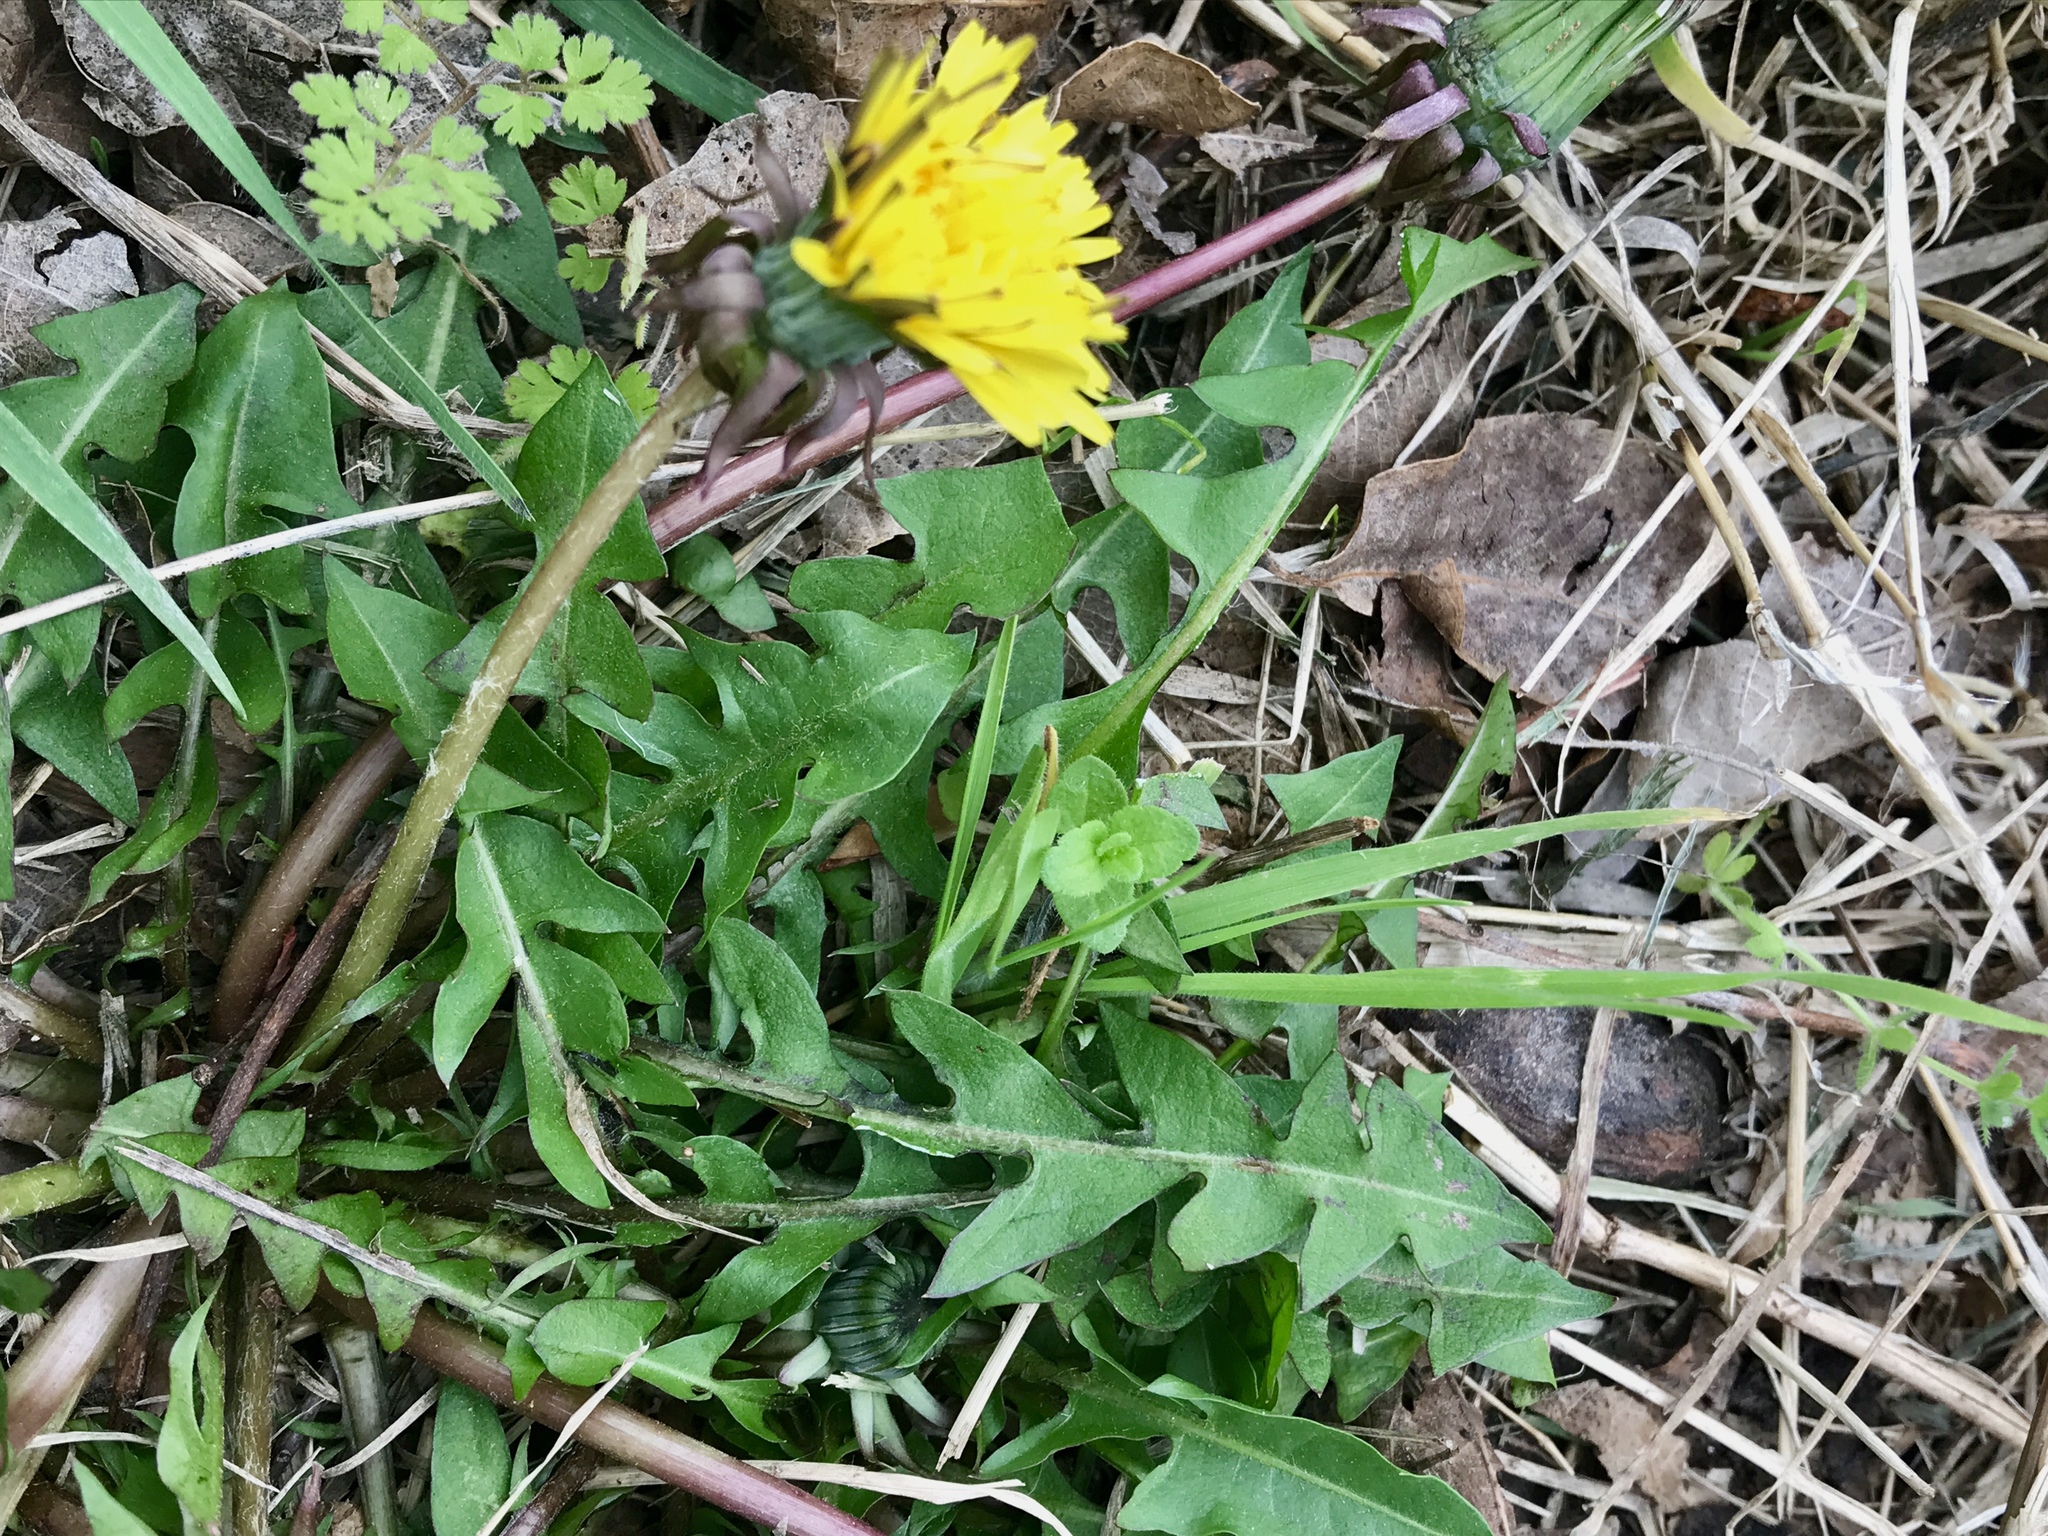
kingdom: Plantae
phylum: Tracheophyta
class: Magnoliopsida
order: Asterales
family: Asteraceae
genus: Taraxacum
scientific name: Taraxacum officinale
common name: Common dandelion
